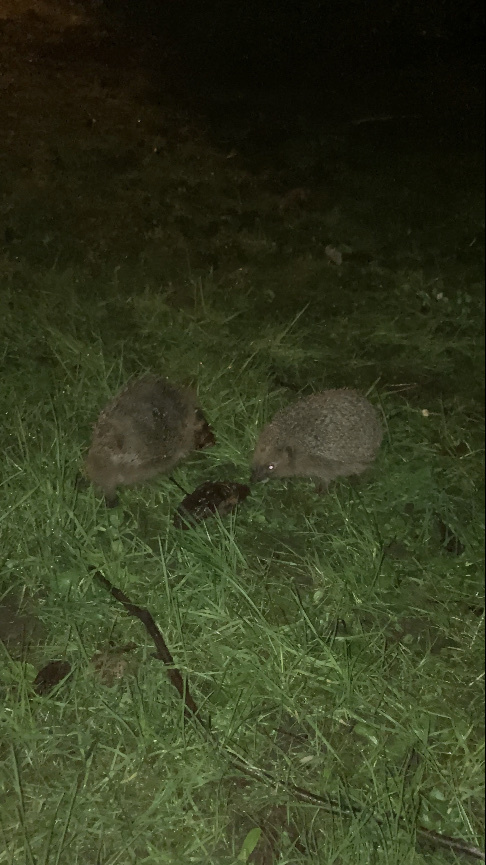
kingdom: Animalia
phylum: Chordata
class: Mammalia
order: Erinaceomorpha
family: Erinaceidae
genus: Erinaceus
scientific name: Erinaceus europaeus
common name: West european hedgehog
